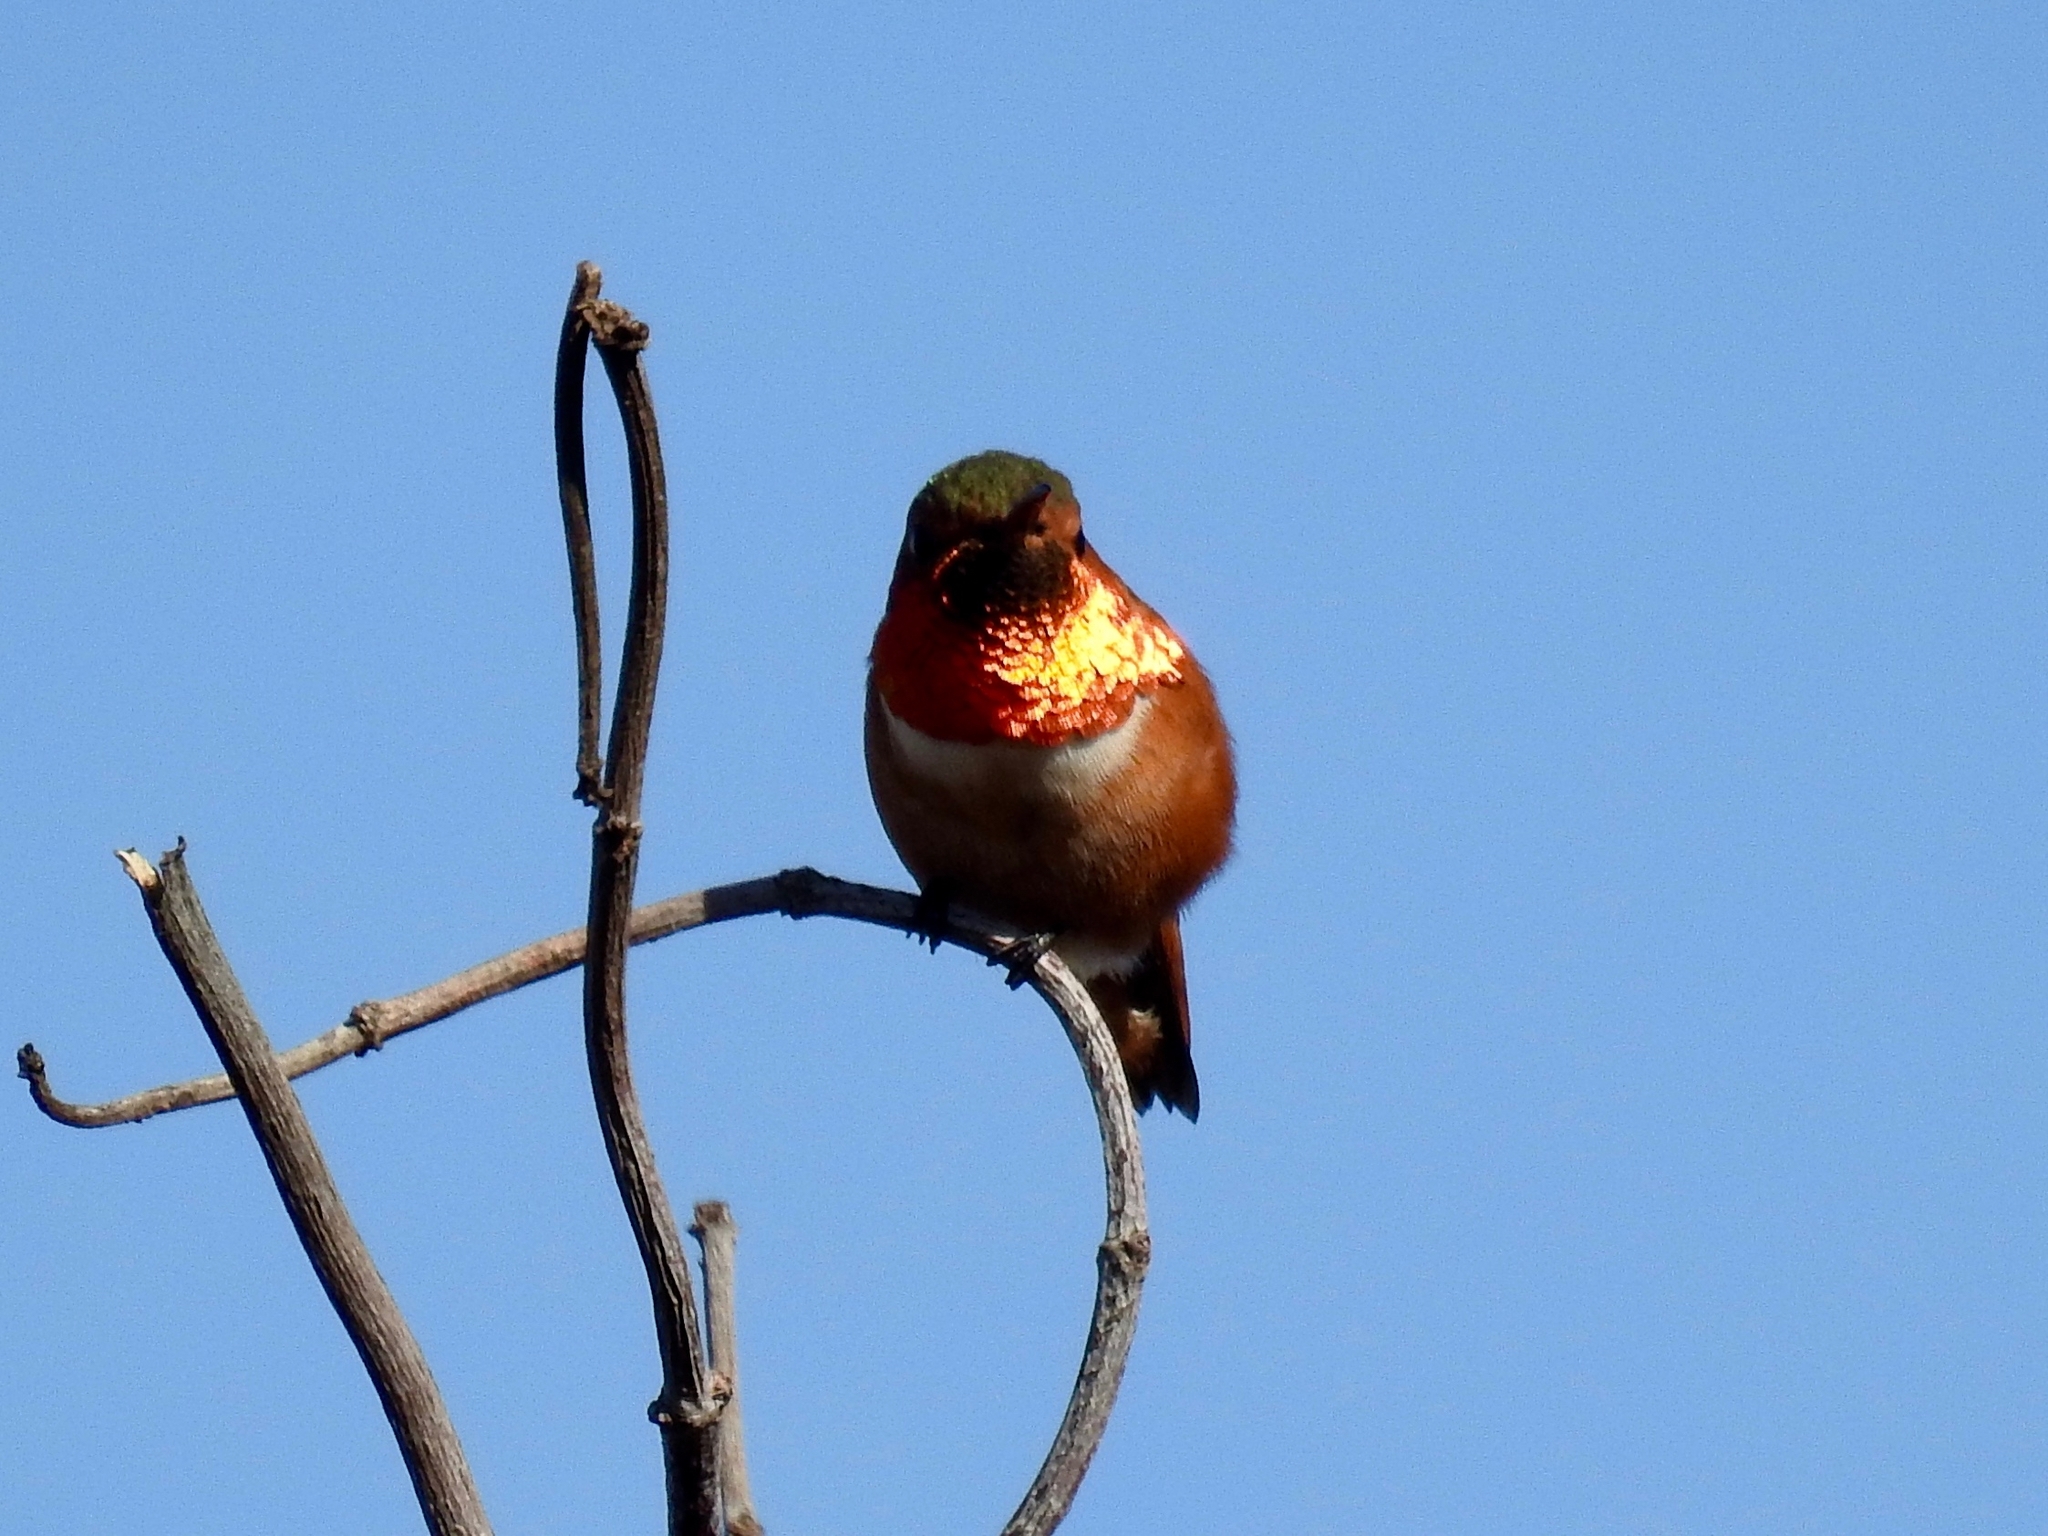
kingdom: Animalia
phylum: Chordata
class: Aves
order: Apodiformes
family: Trochilidae
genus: Selasphorus
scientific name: Selasphorus sasin
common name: Allen's hummingbird
